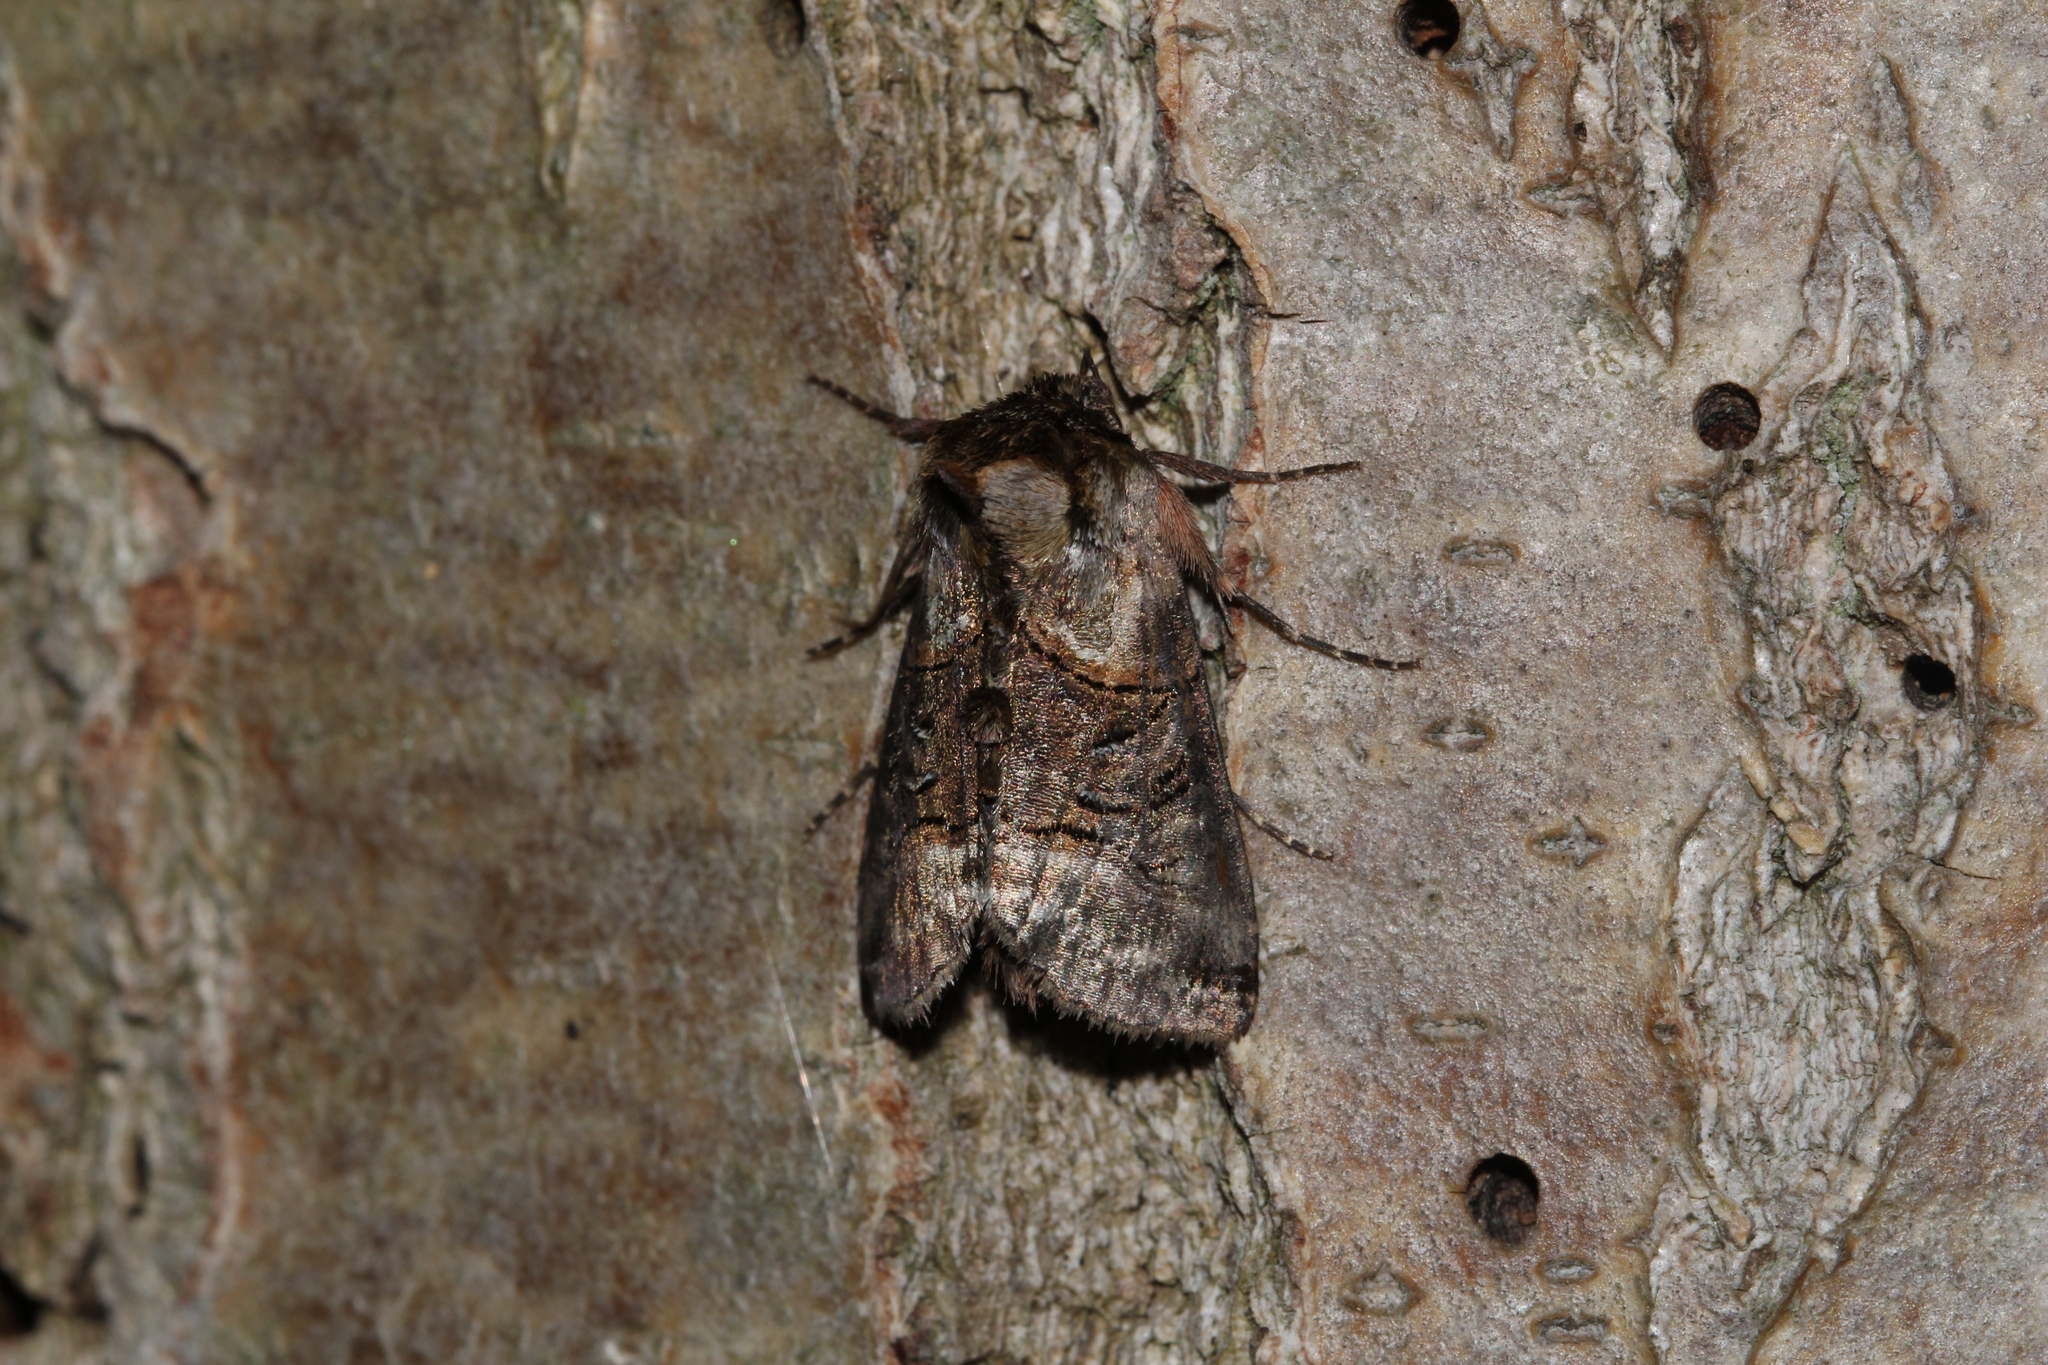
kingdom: Animalia
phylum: Arthropoda
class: Insecta
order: Lepidoptera
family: Noctuidae
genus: Abrostola
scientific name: Abrostola tripartita
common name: Spectacle
